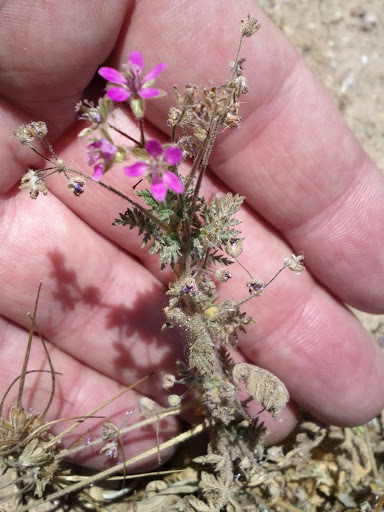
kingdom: Plantae
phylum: Tracheophyta
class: Magnoliopsida
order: Geraniales
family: Geraniaceae
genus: Erodium
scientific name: Erodium cicutarium
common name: Common stork's-bill
